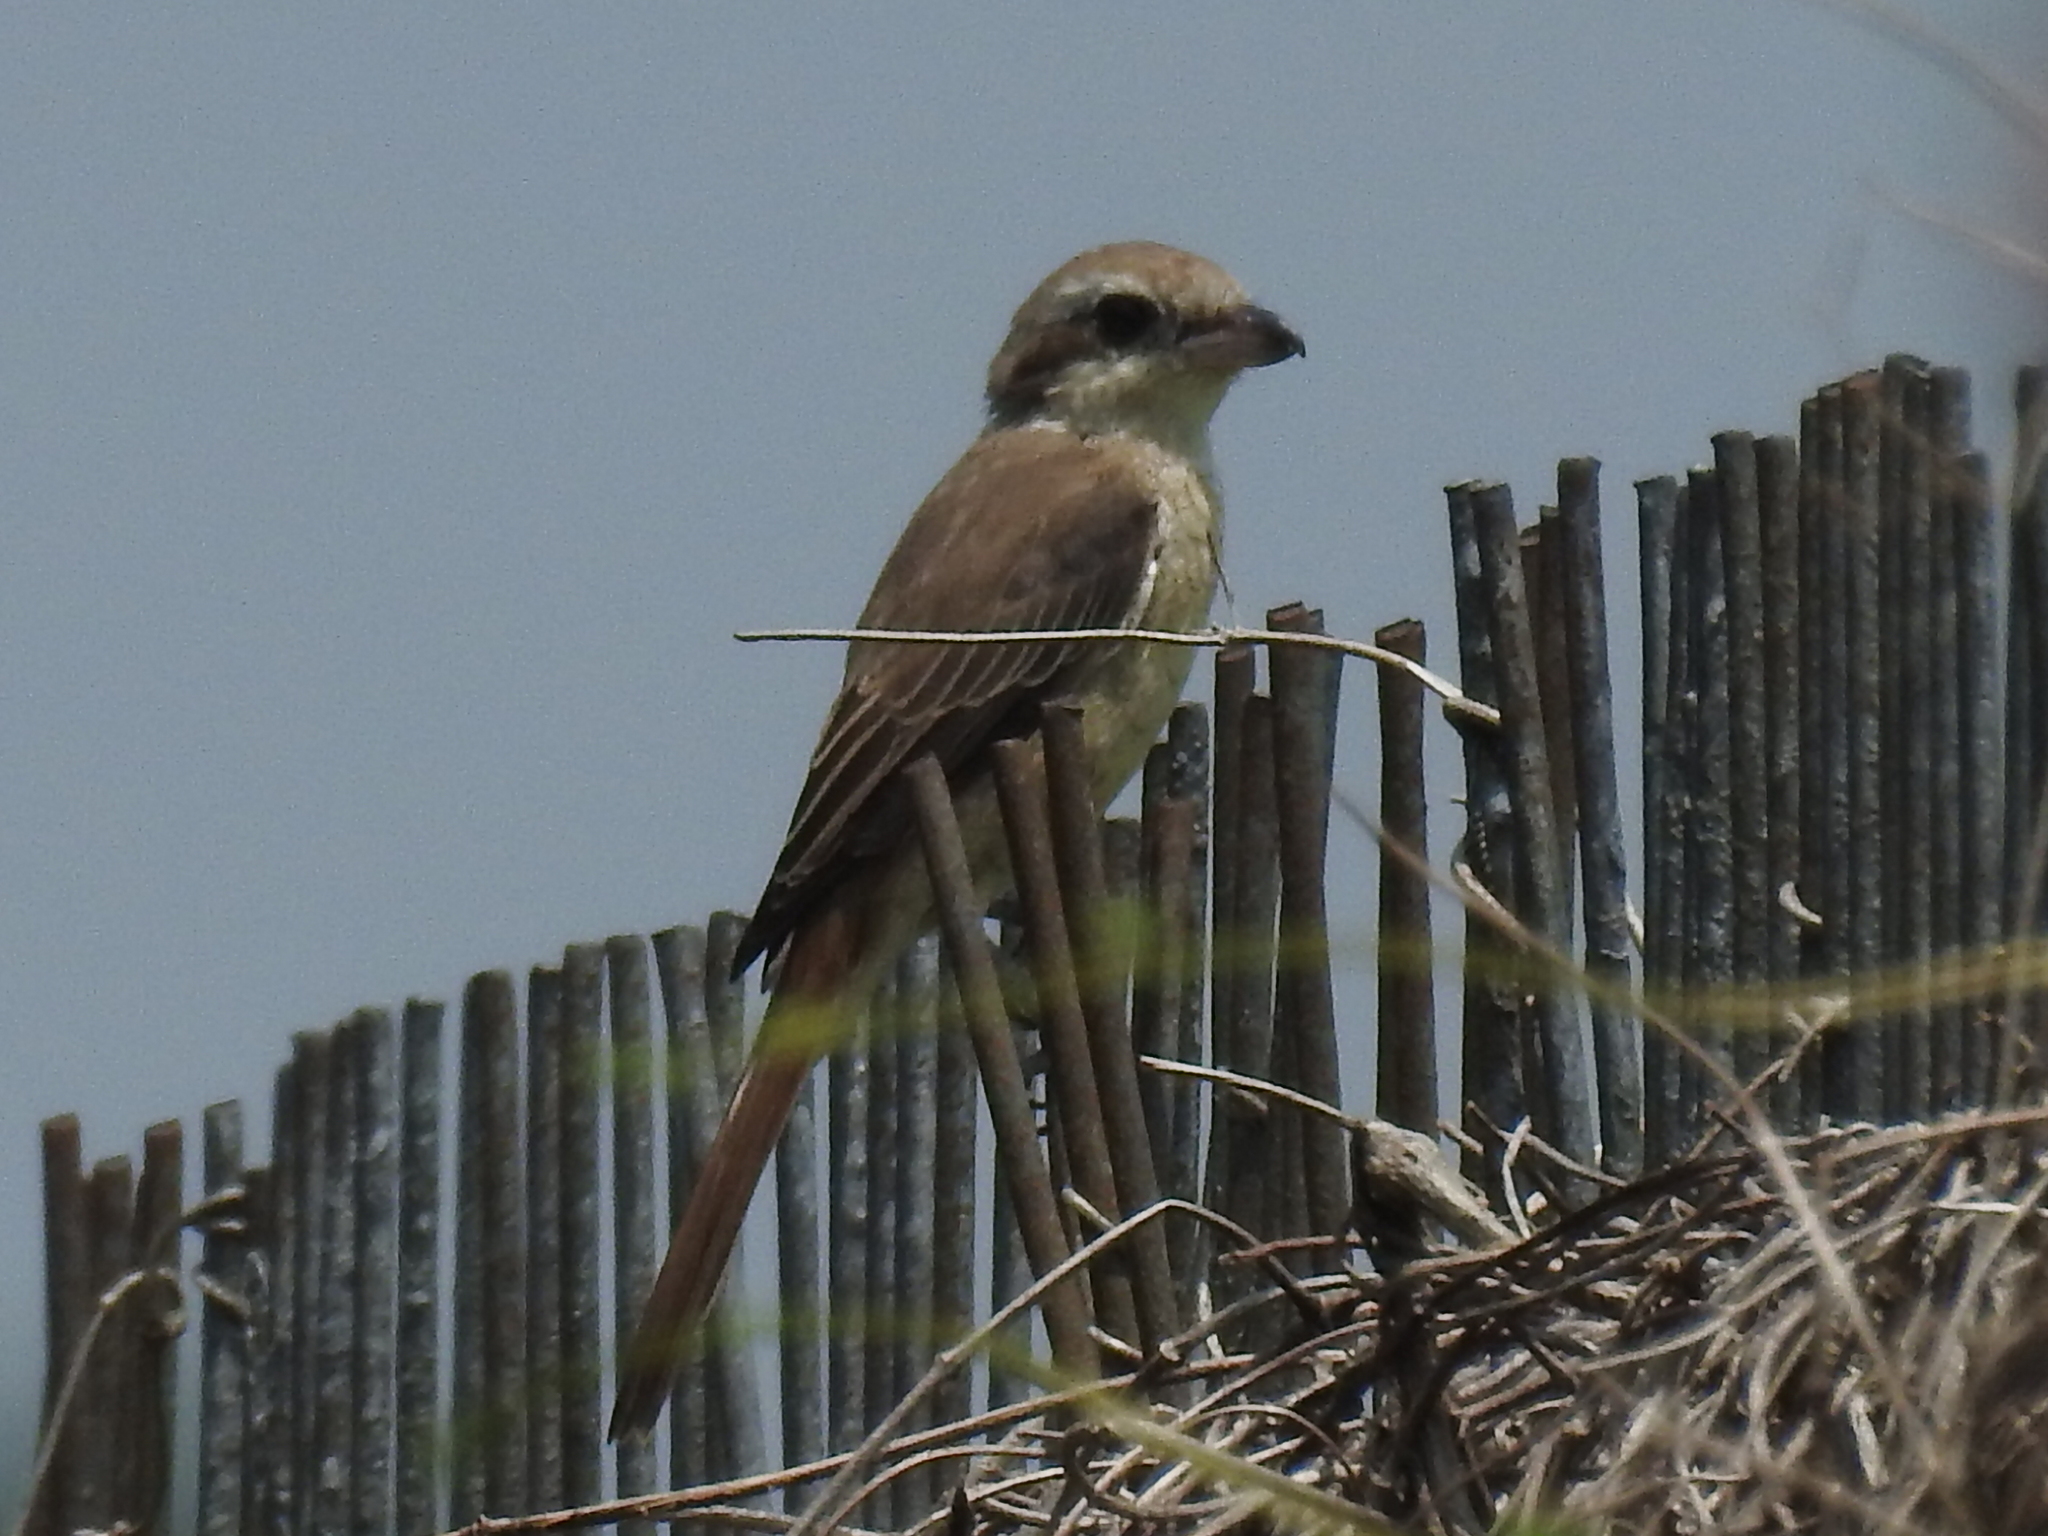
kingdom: Animalia
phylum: Chordata
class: Aves
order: Passeriformes
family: Laniidae
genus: Lanius
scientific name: Lanius cristatus
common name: Brown shrike
